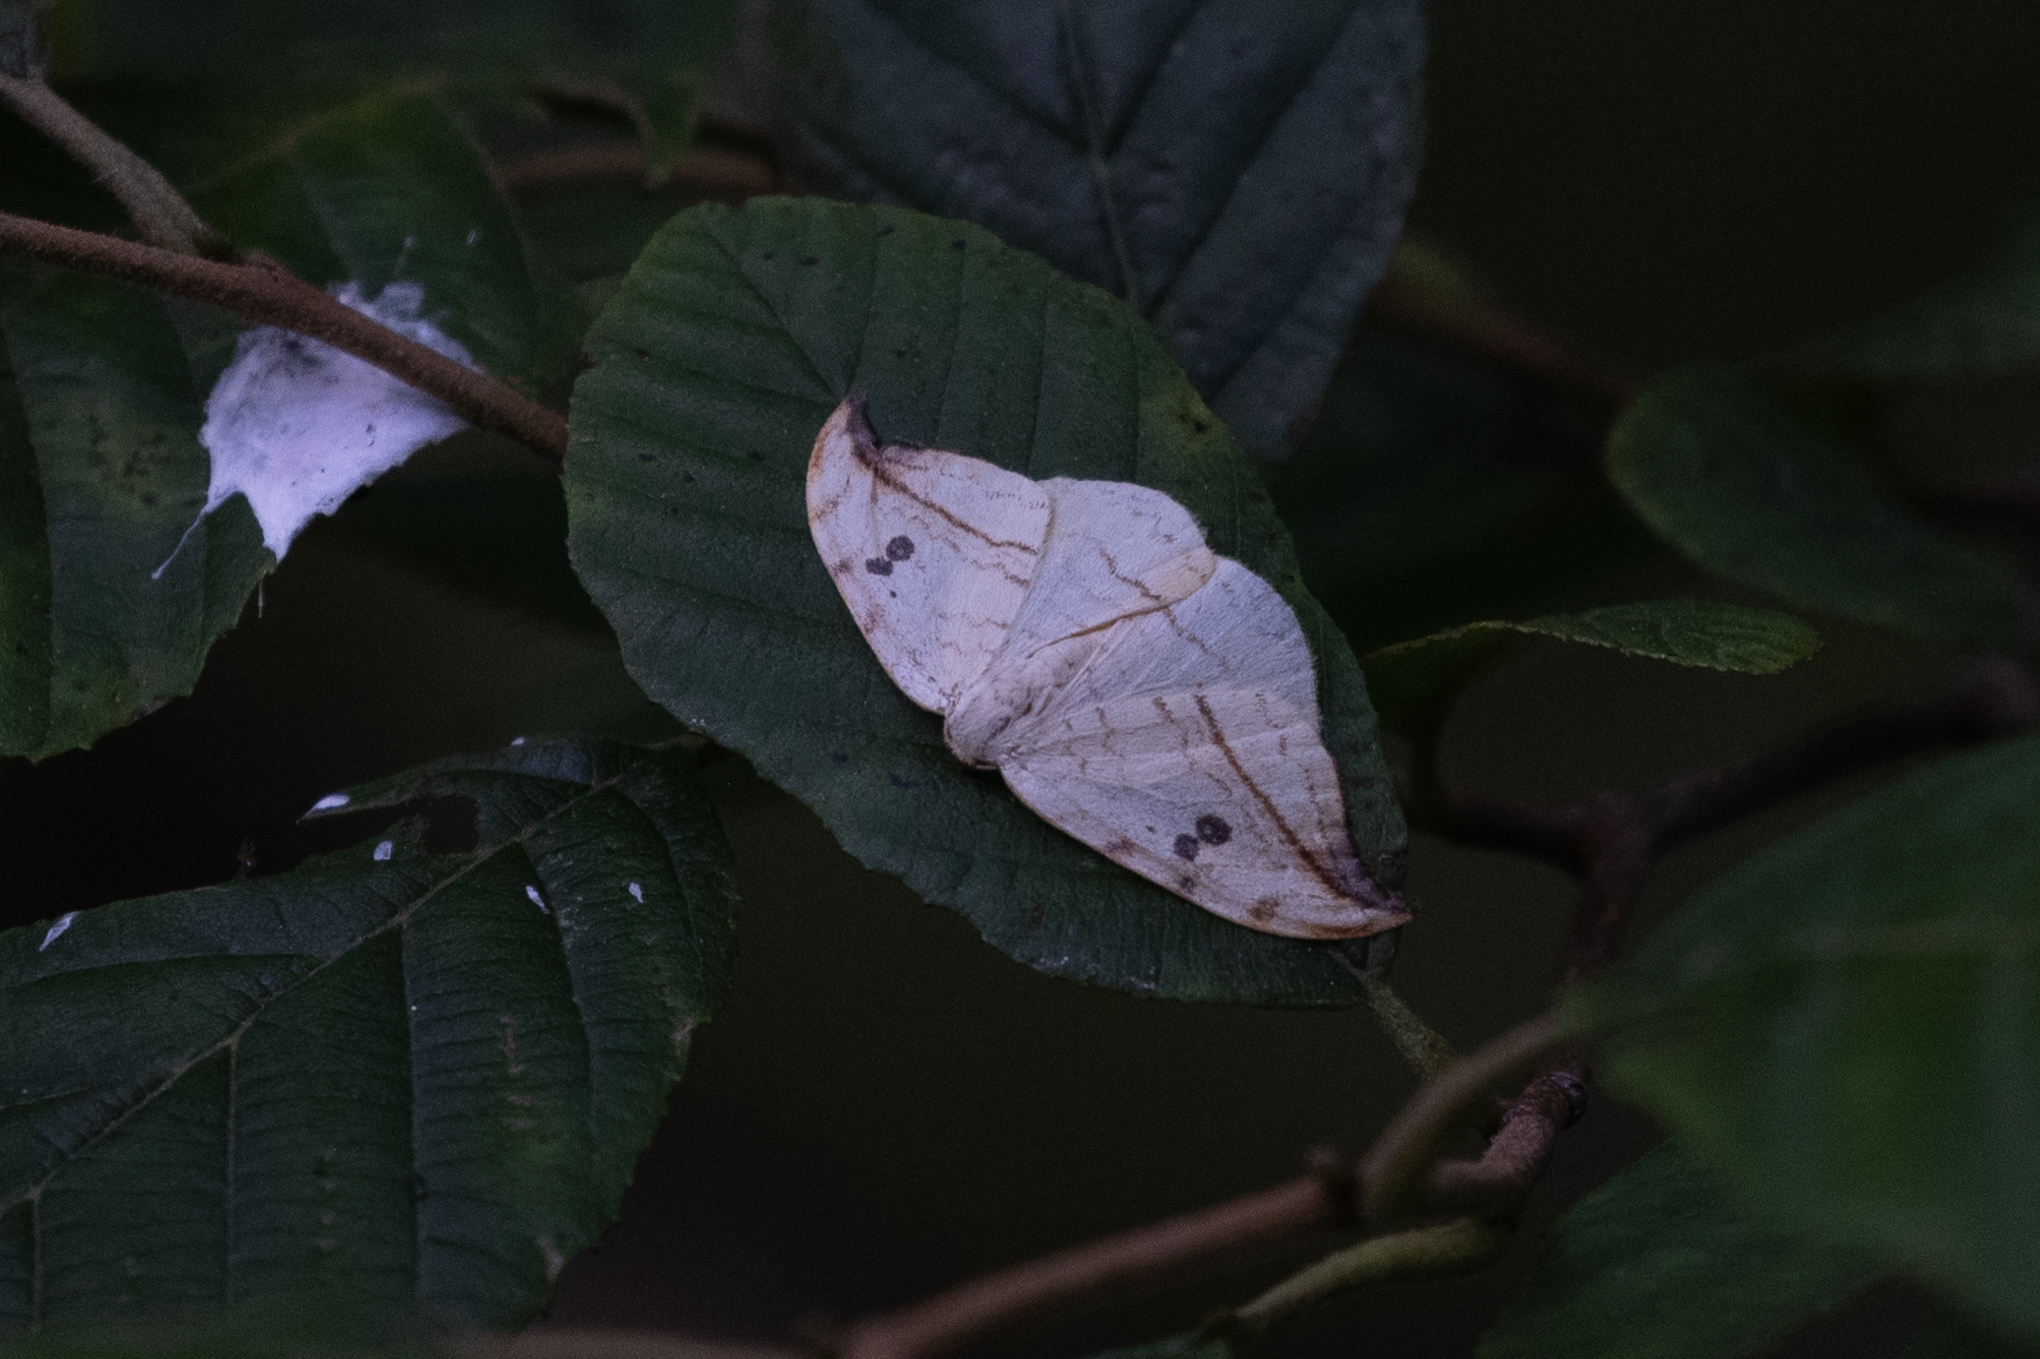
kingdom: Animalia
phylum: Arthropoda
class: Insecta
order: Lepidoptera
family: Drepanidae
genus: Drepana
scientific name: Drepana arcuata
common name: Arched hooktip moth
